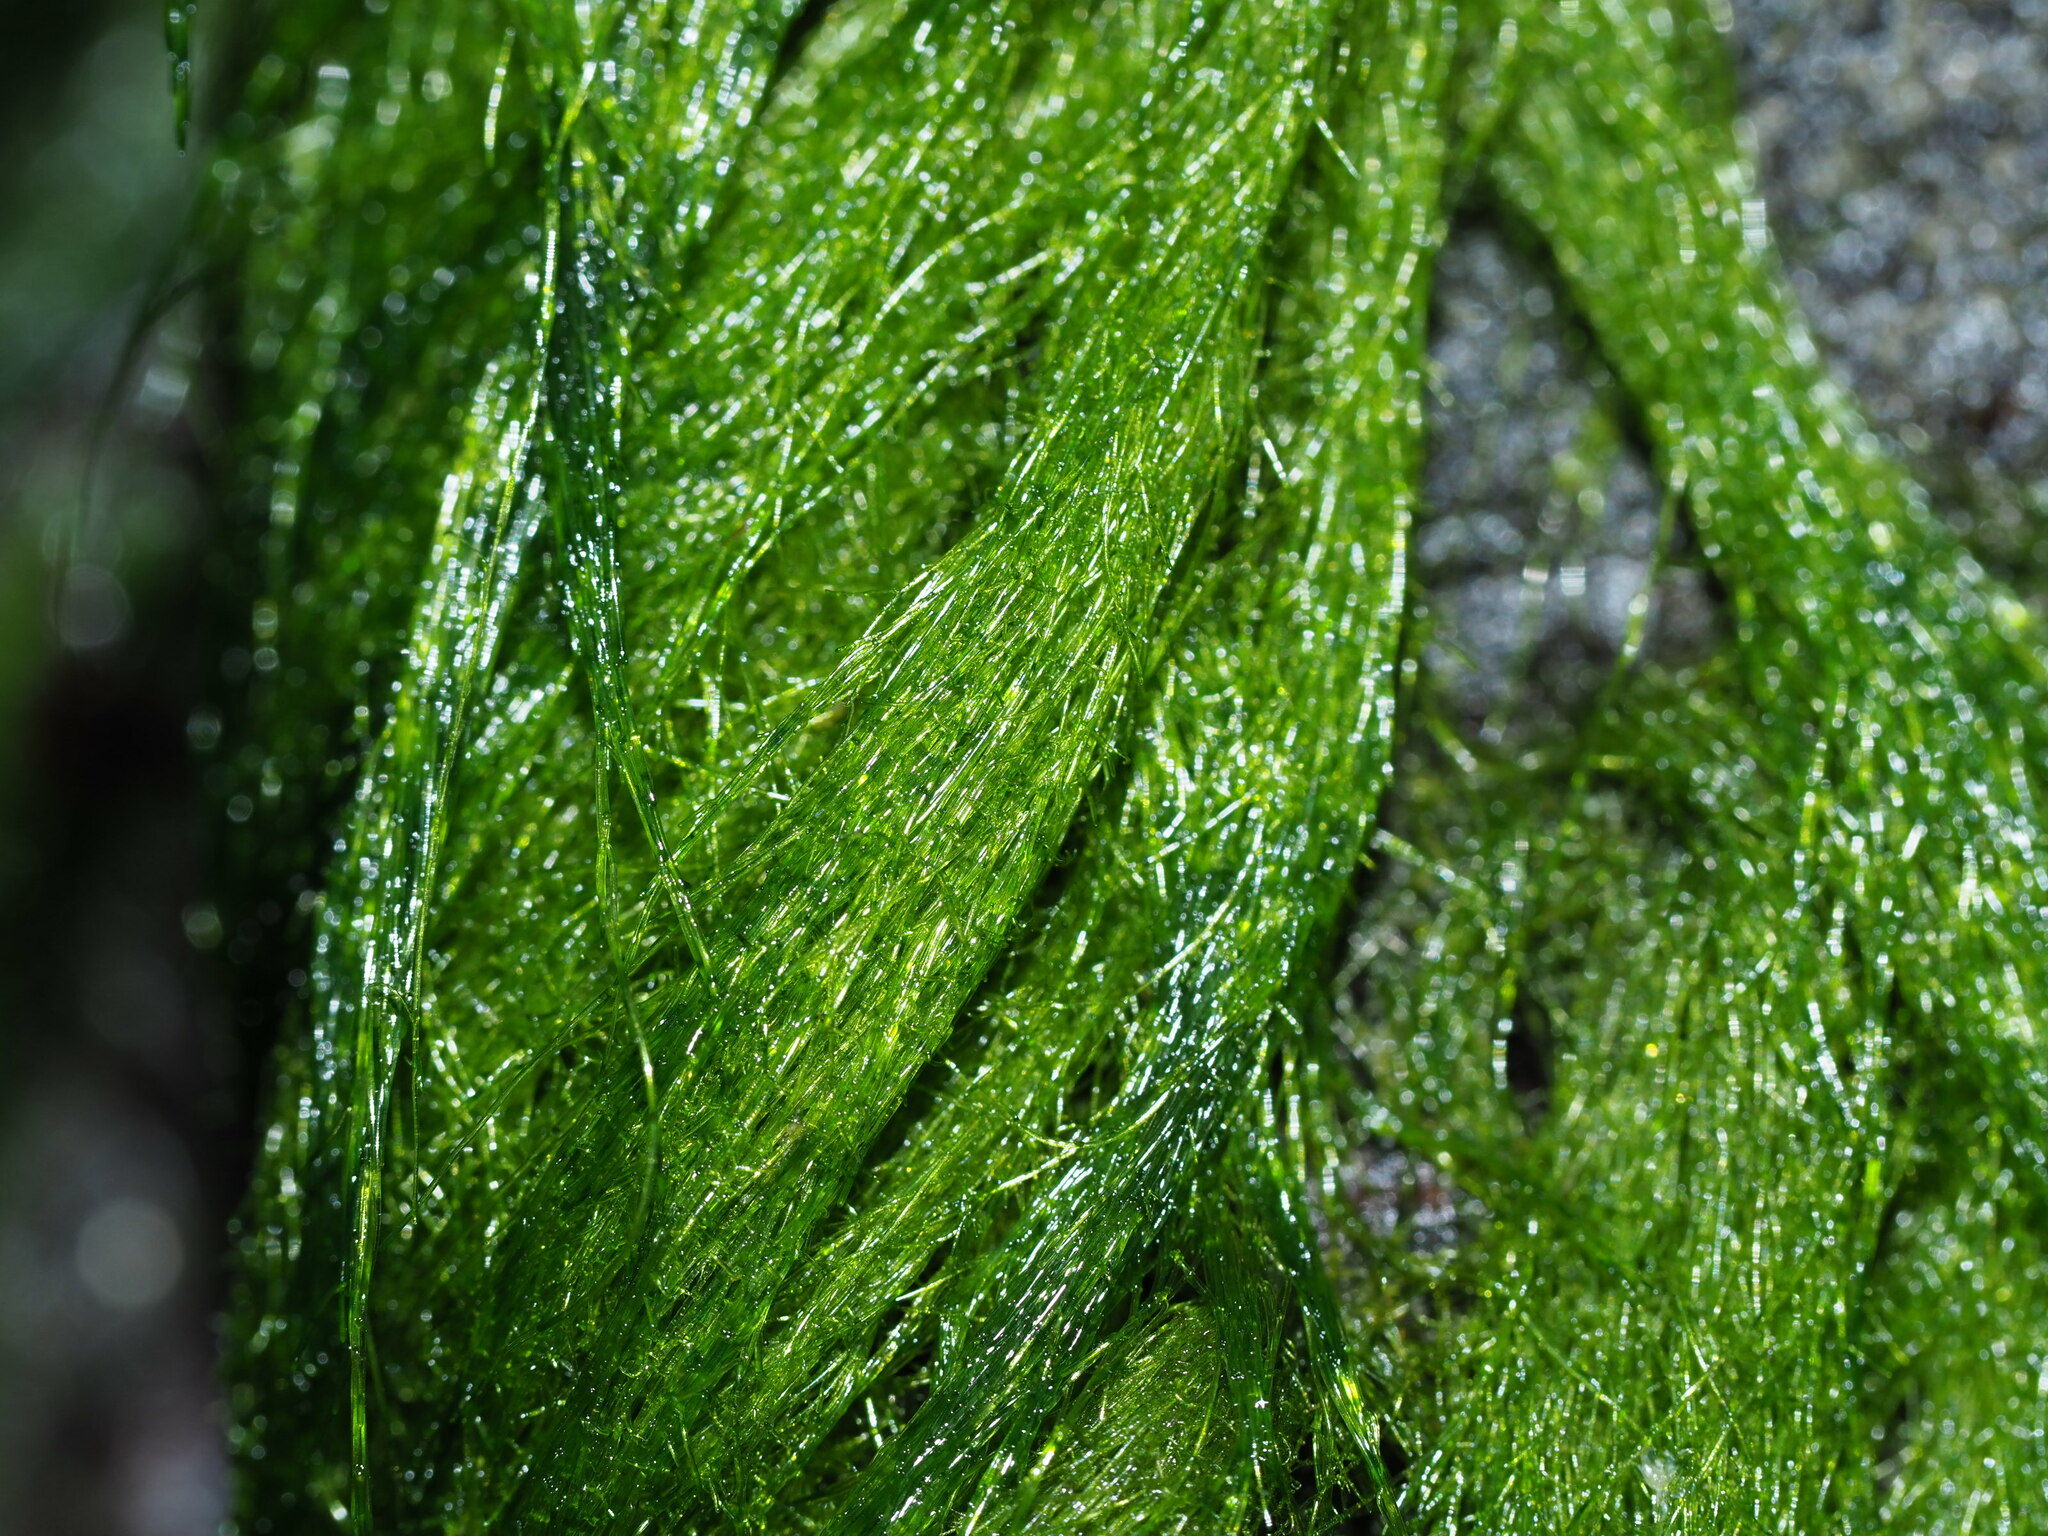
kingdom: Plantae
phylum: Chlorophyta
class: Ulvophyceae
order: Ulotrichales
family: Ulotrichaceae
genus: Acrosiphonia
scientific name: Acrosiphonia
